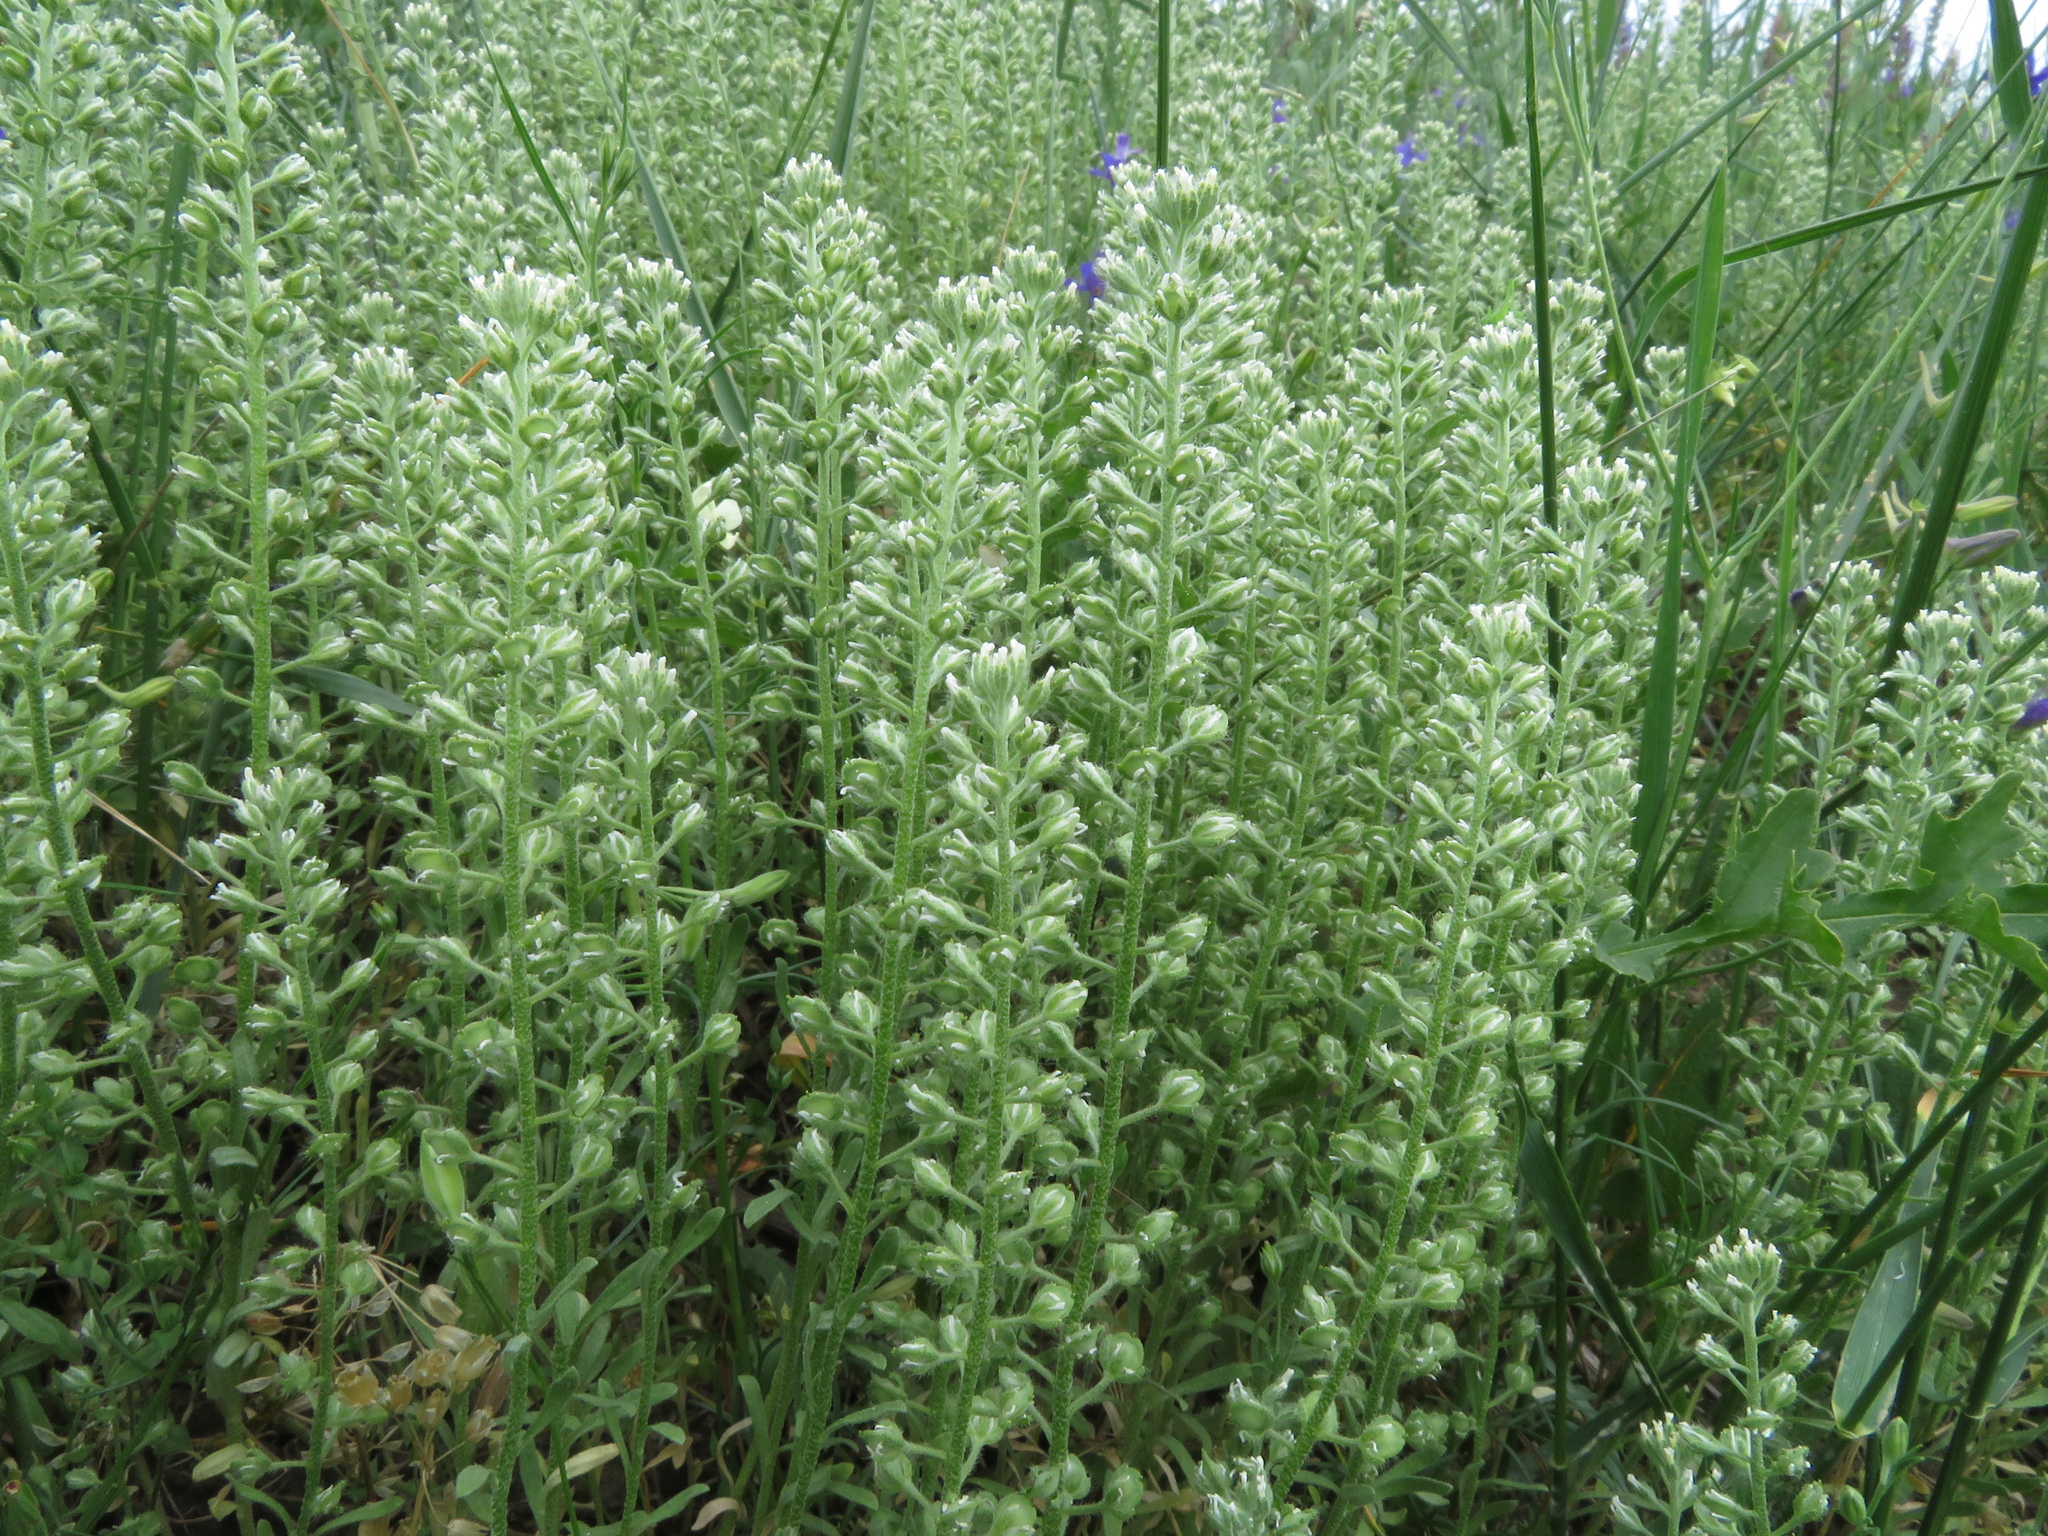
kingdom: Plantae
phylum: Tracheophyta
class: Magnoliopsida
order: Brassicales
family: Brassicaceae
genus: Alyssum
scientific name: Alyssum alyssoides
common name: Small alison
